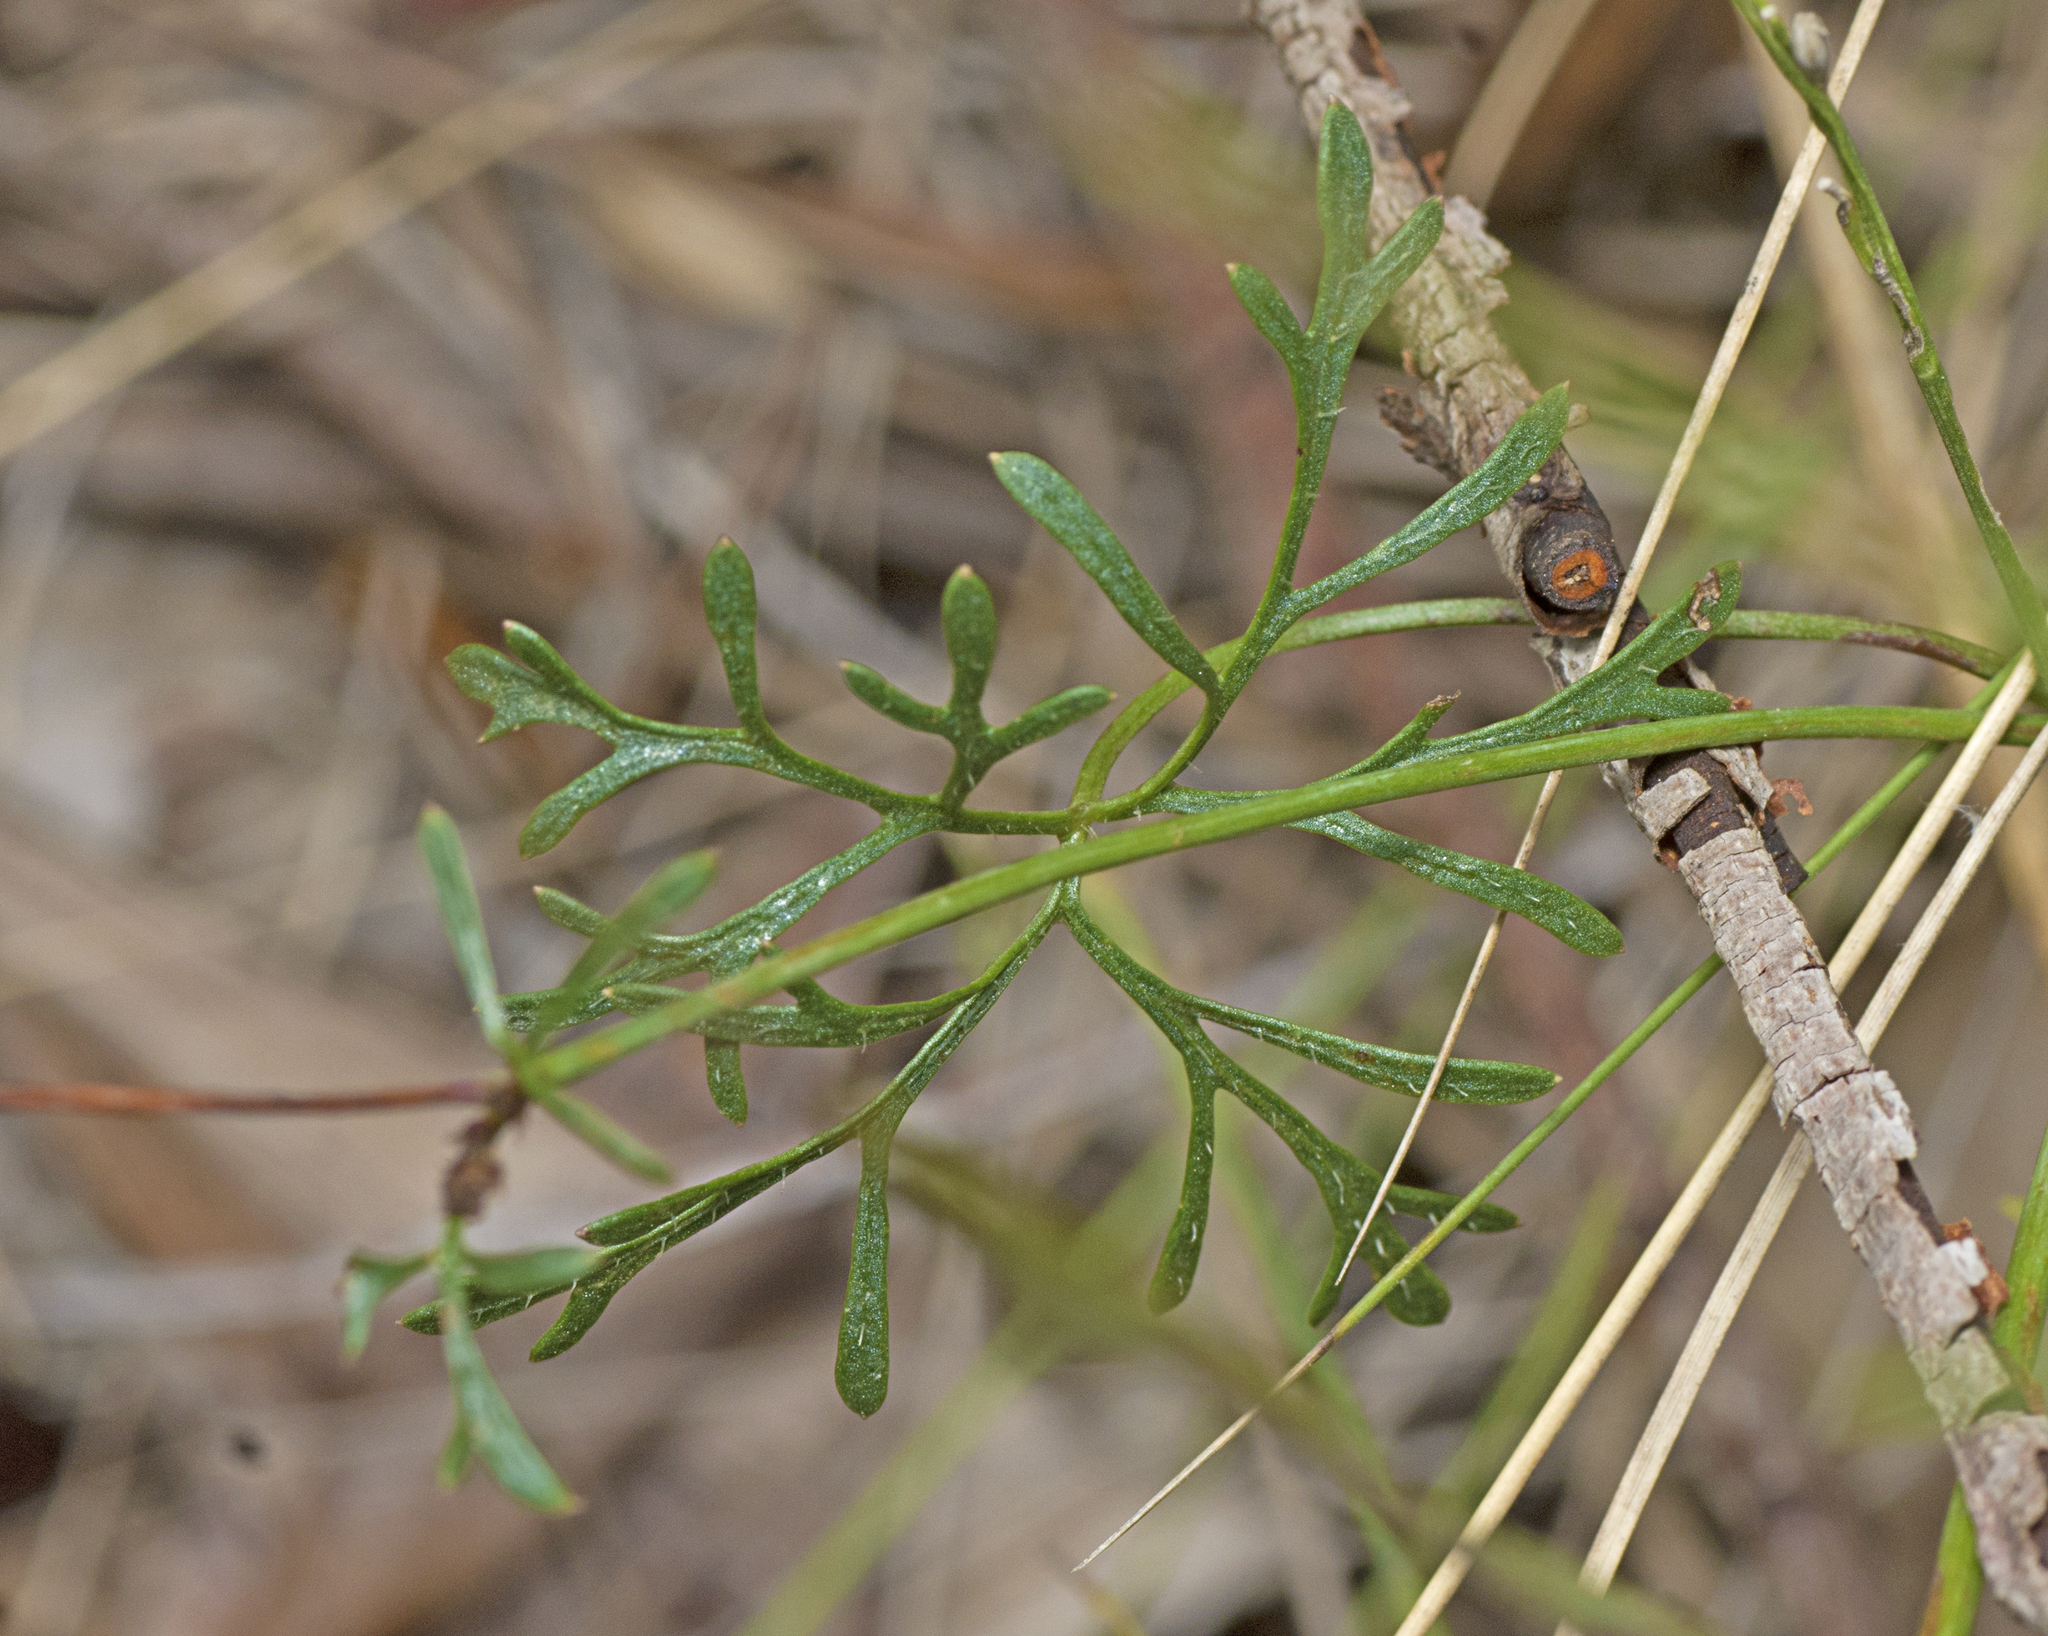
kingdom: Plantae
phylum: Tracheophyta
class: Magnoliopsida
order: Apiales
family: Araliaceae
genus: Trachymene
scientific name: Trachymene incisa
